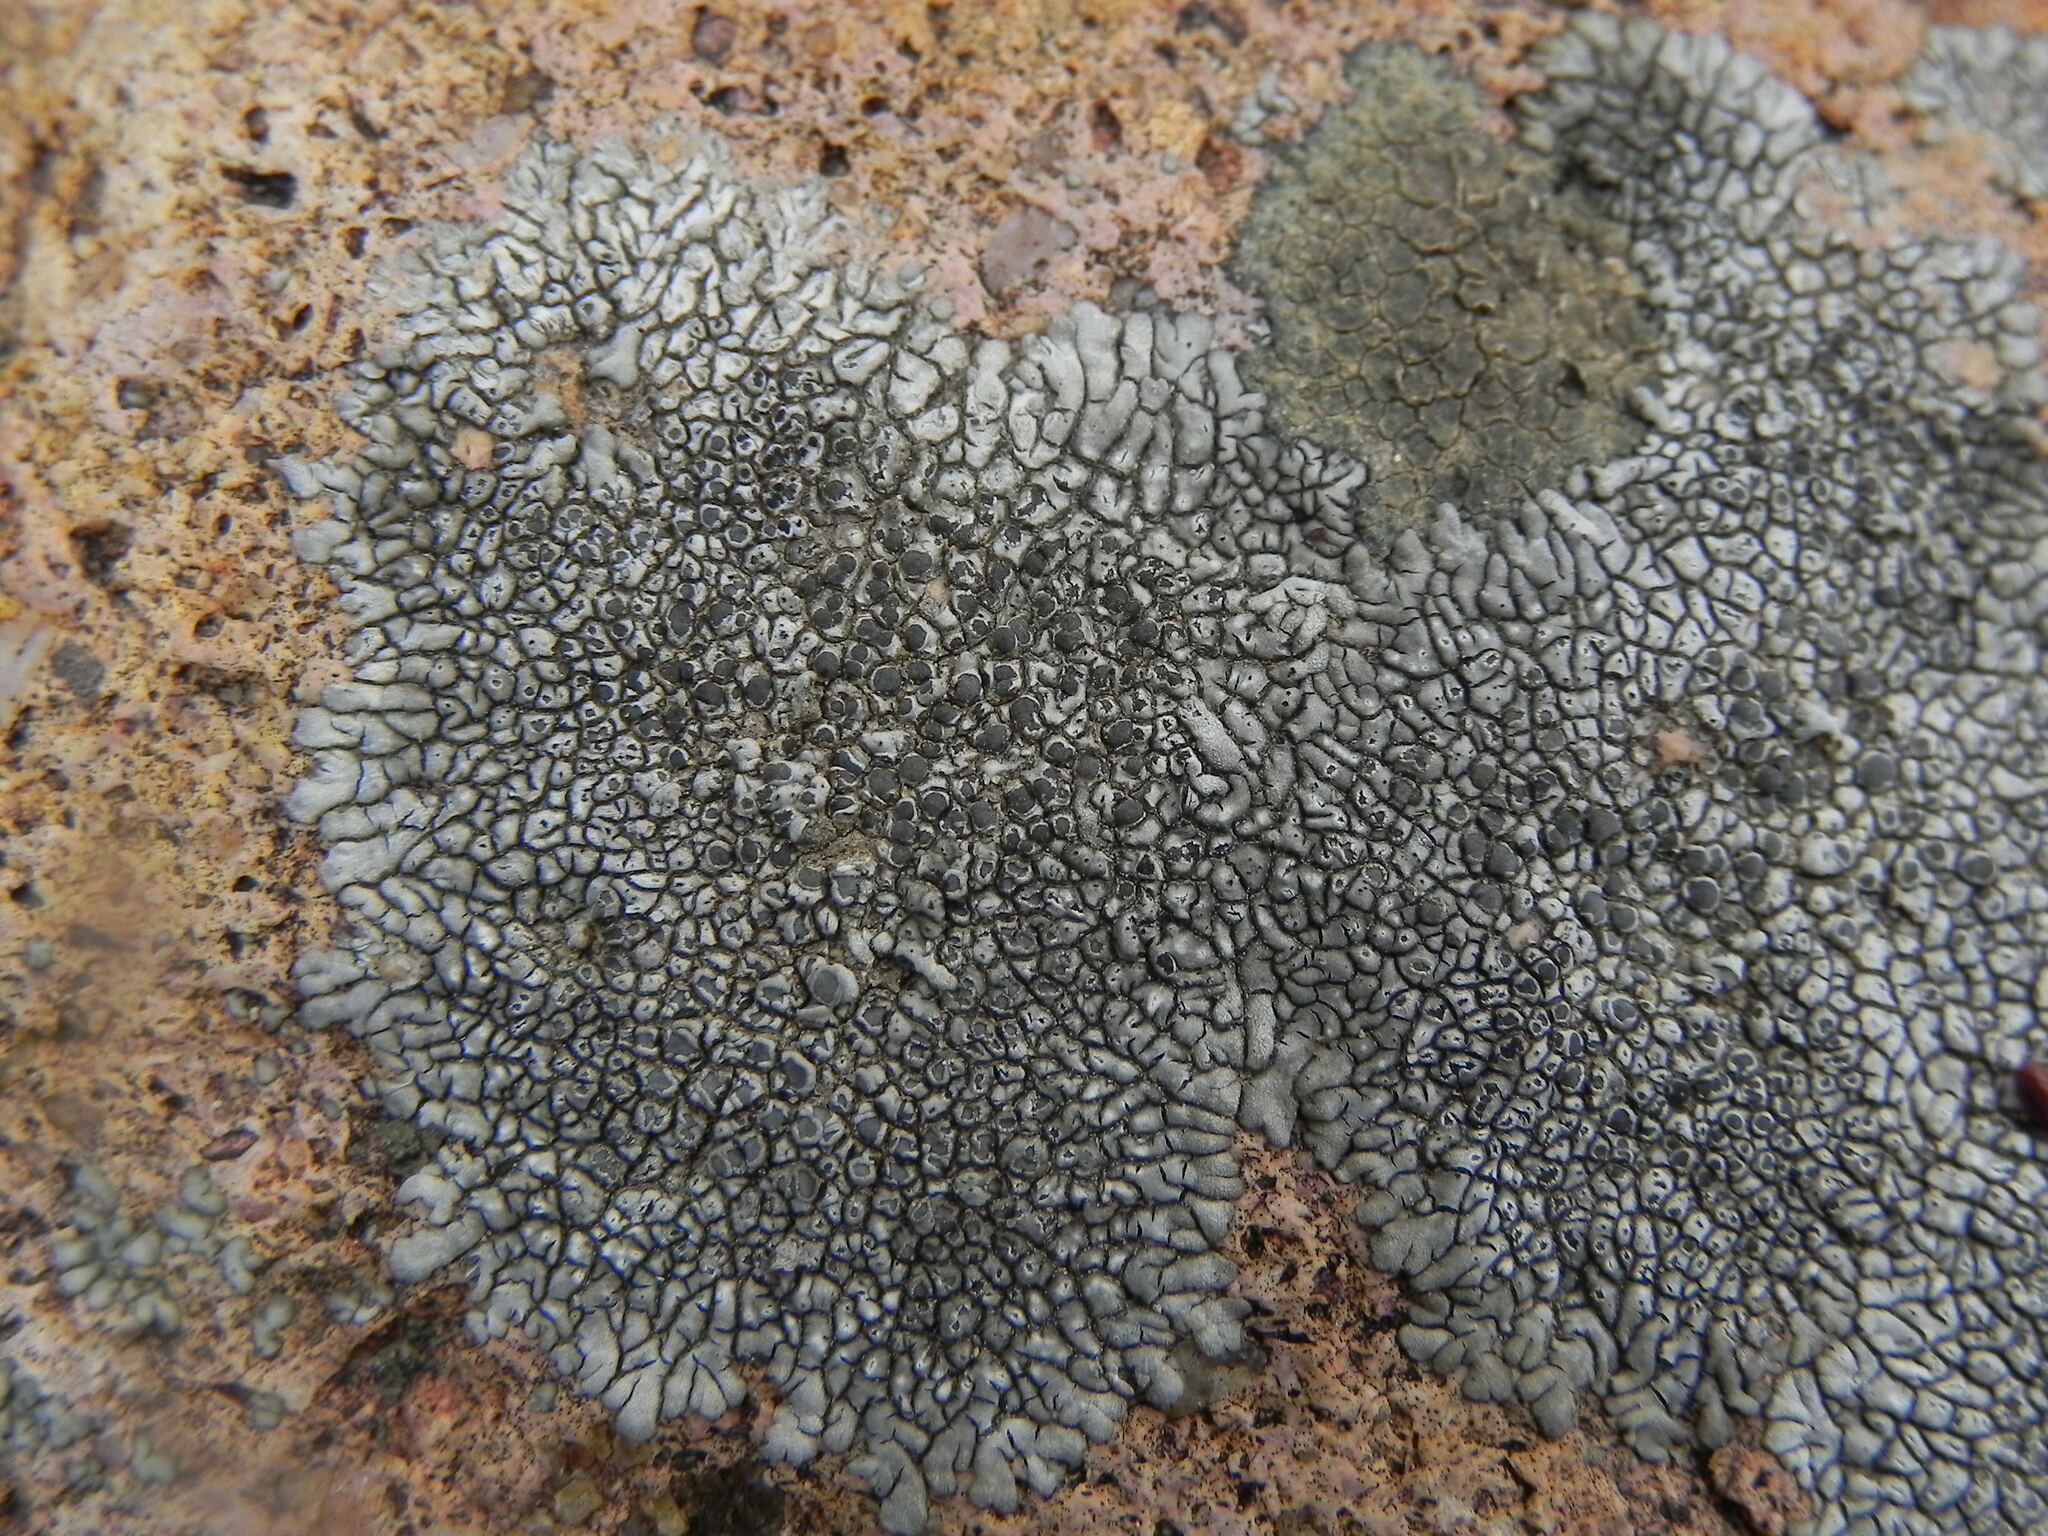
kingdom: Fungi
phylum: Ascomycota
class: Lecanoromycetes
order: Caliciales
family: Caliciaceae
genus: Dimelaena
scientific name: Dimelaena radiata
